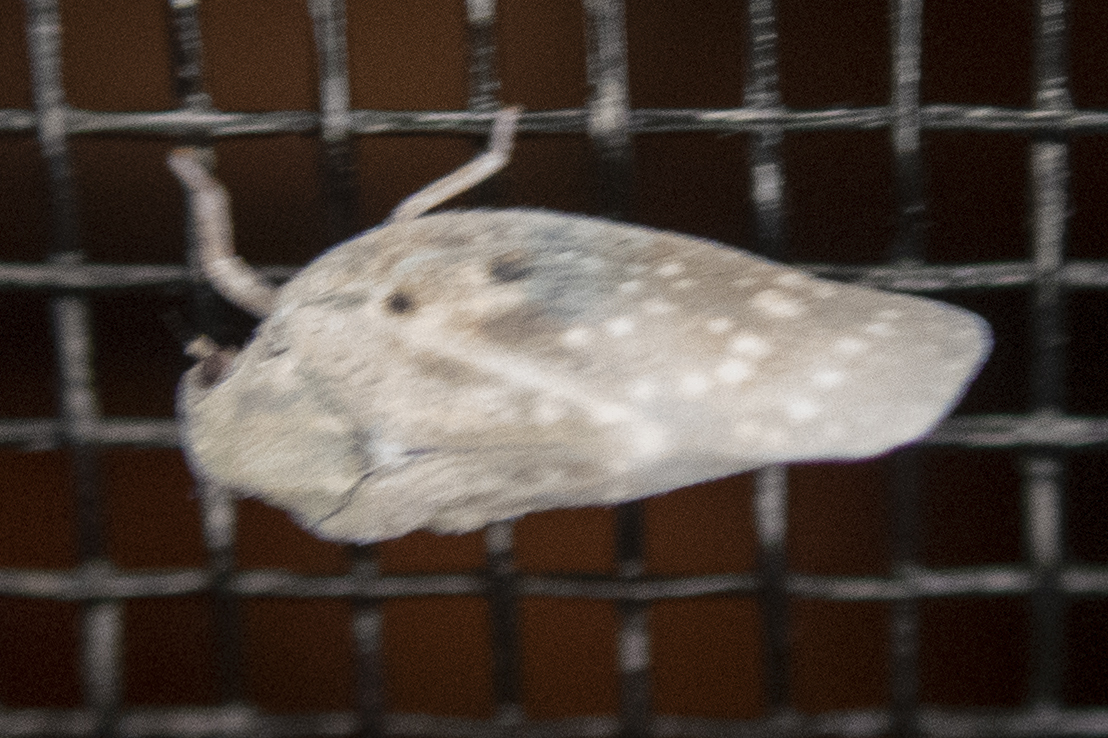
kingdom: Animalia
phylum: Arthropoda
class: Insecta
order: Hemiptera
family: Flatidae
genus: Metcalfa
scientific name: Metcalfa pruinosa
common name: Citrus flatid planthopper
